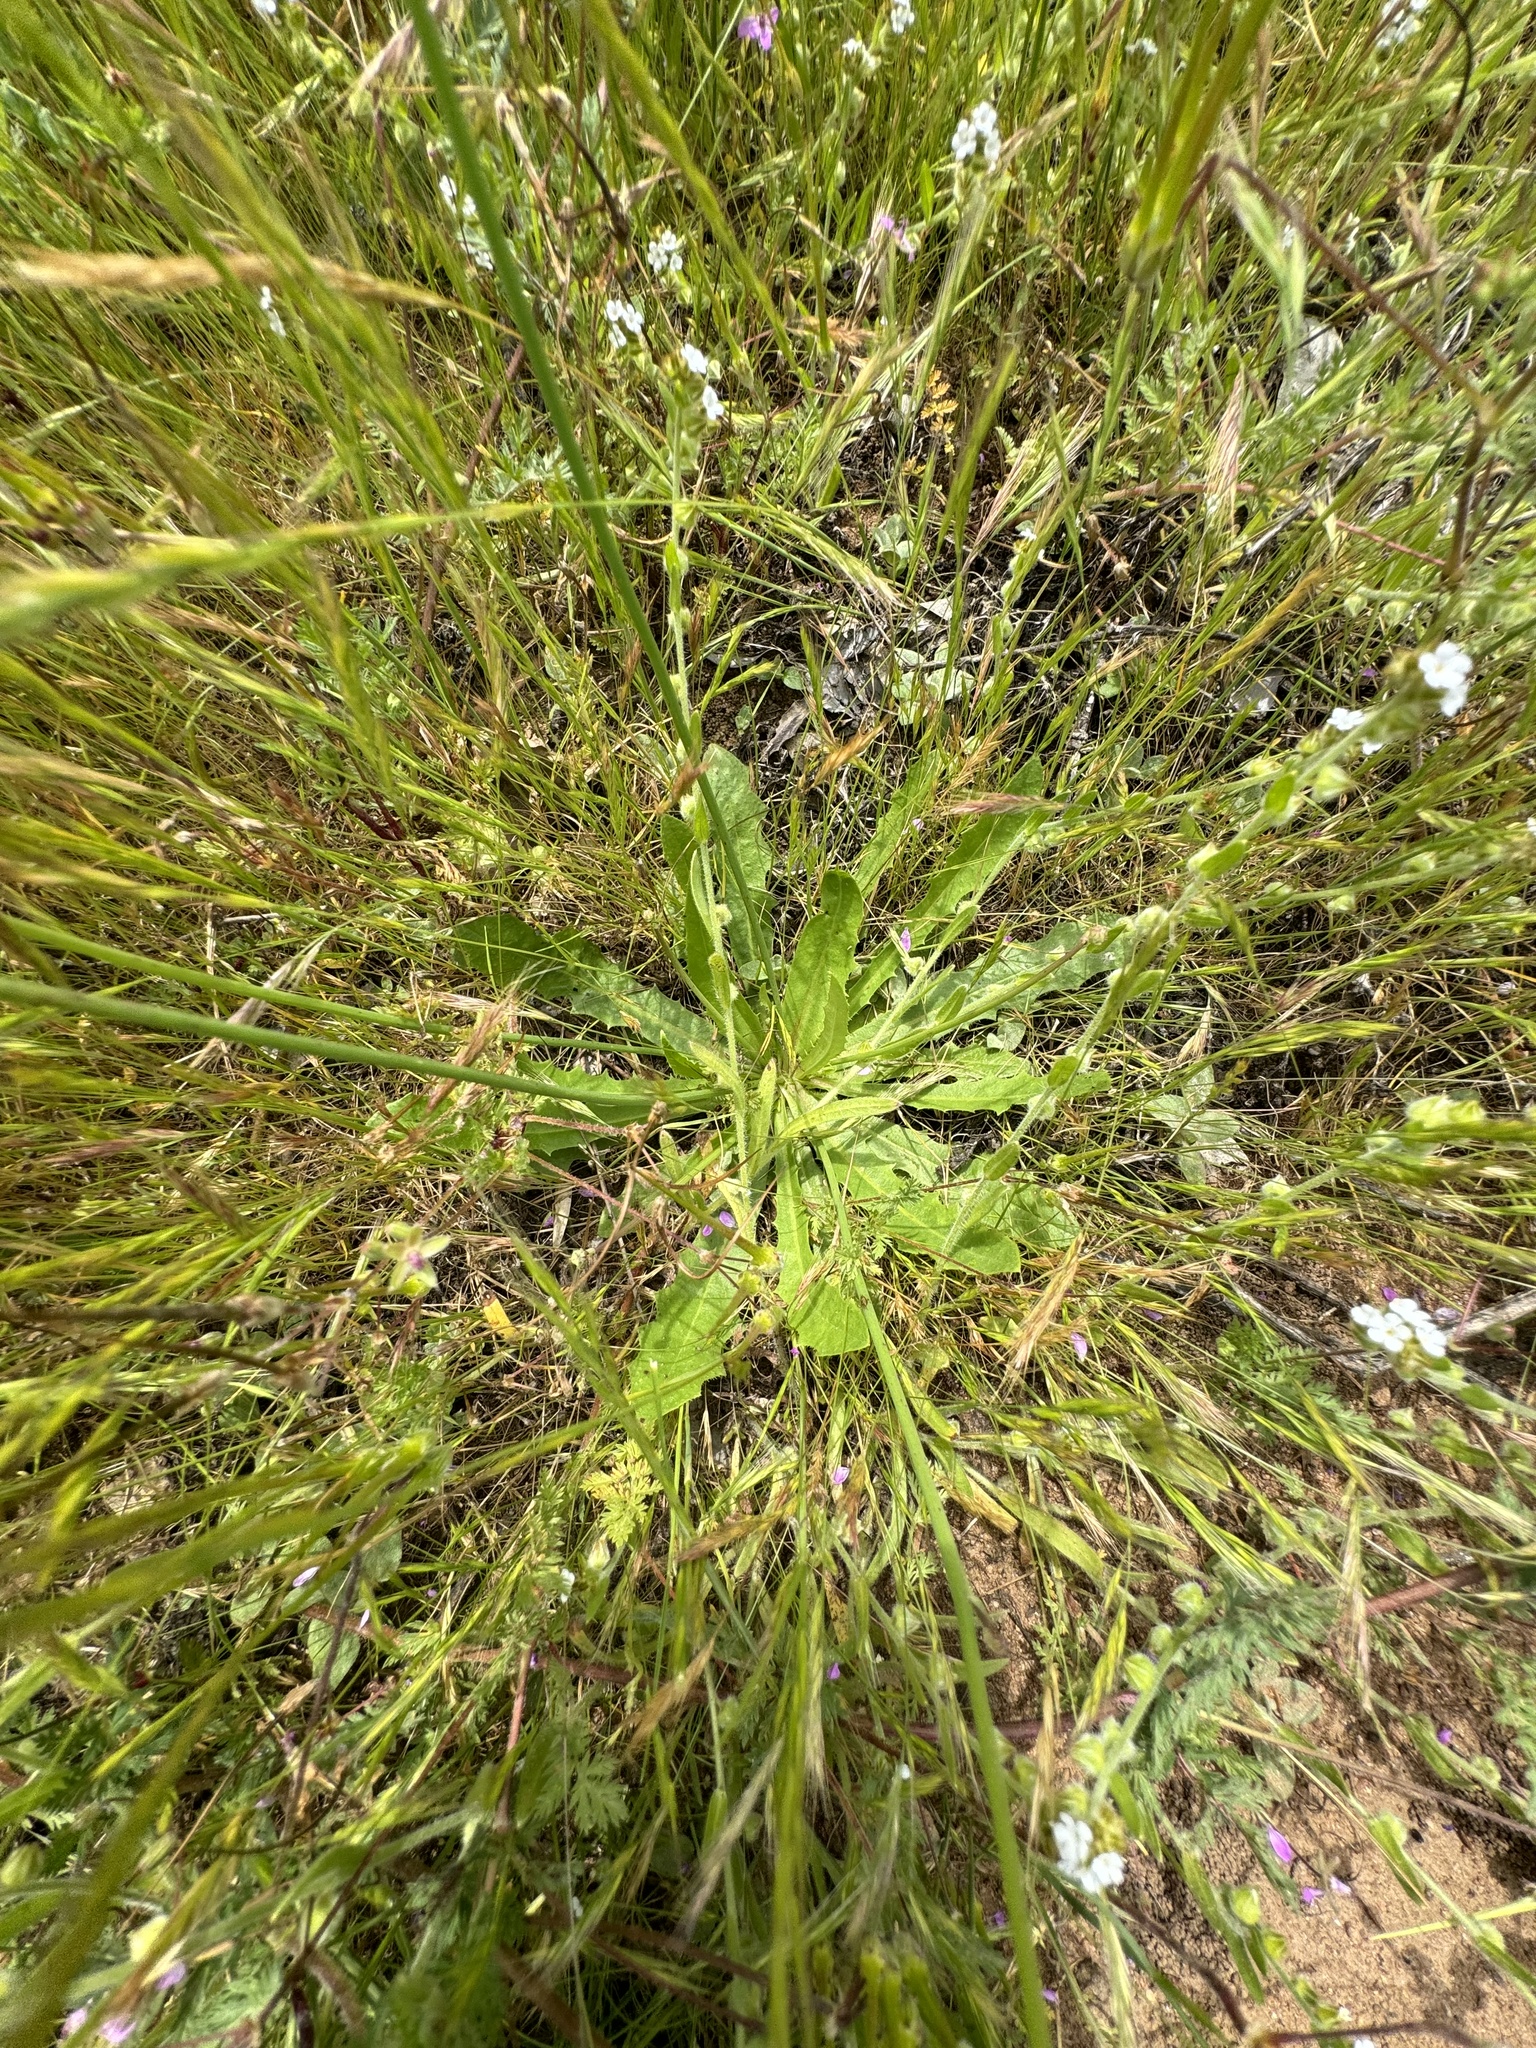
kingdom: Plantae
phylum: Tracheophyta
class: Magnoliopsida
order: Asterales
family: Asteraceae
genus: Hypochaeris
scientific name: Hypochaeris radicata
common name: Flatweed
